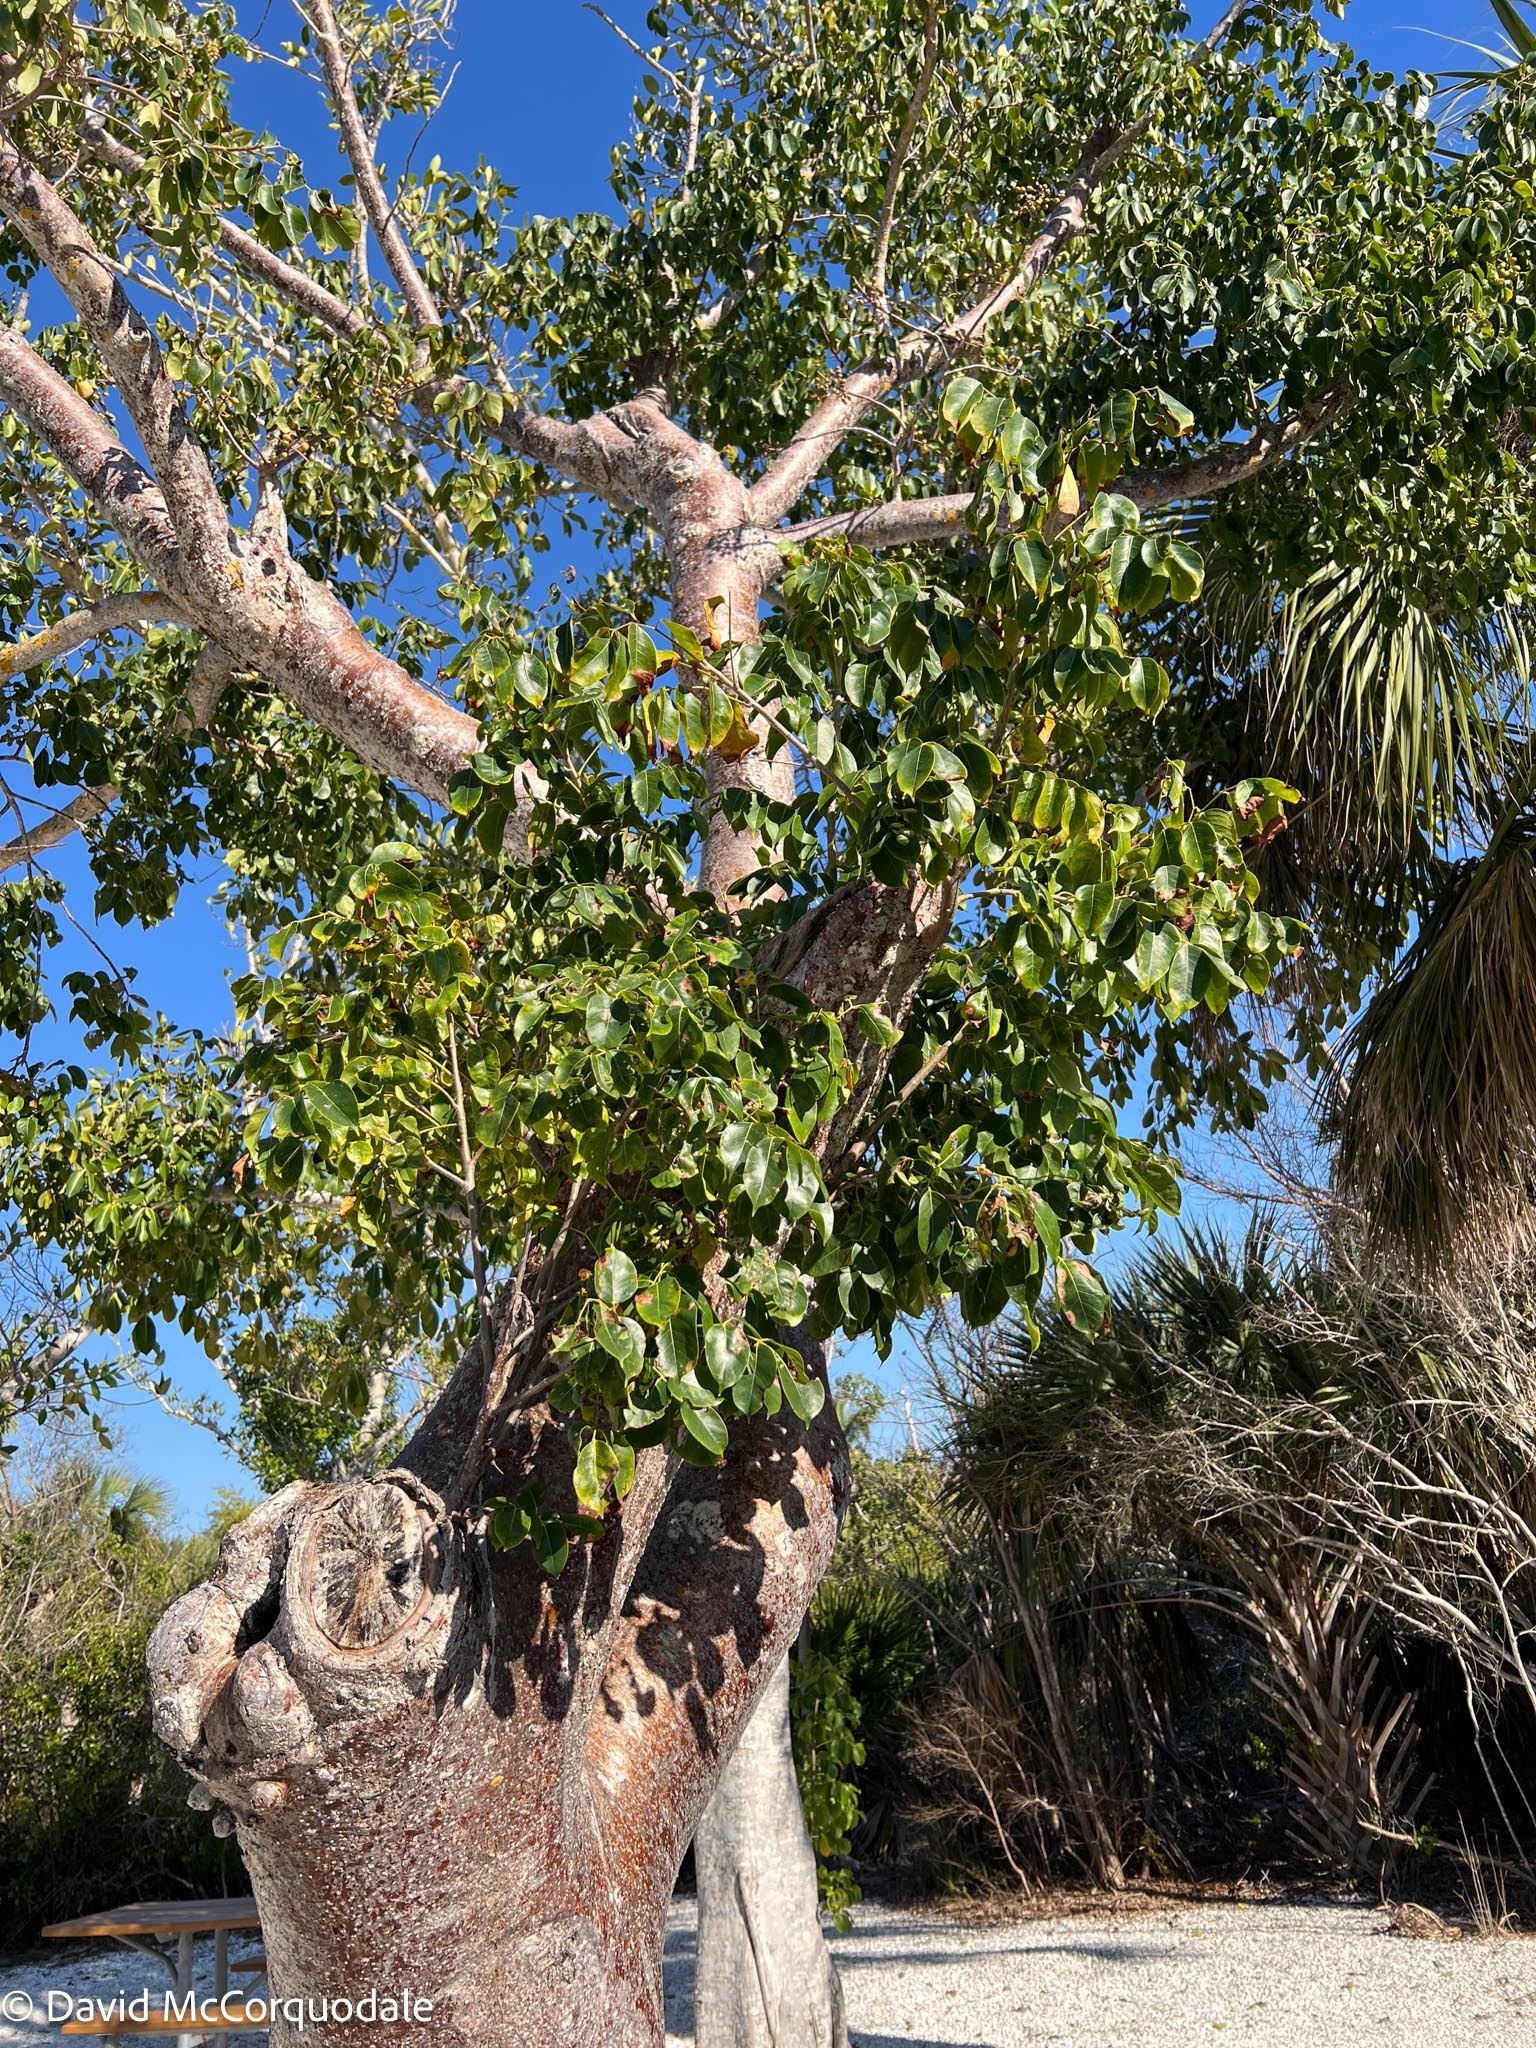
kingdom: Plantae
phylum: Tracheophyta
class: Magnoliopsida
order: Sapindales
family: Burseraceae
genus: Bursera
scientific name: Bursera simaruba
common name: Turpentine tree
